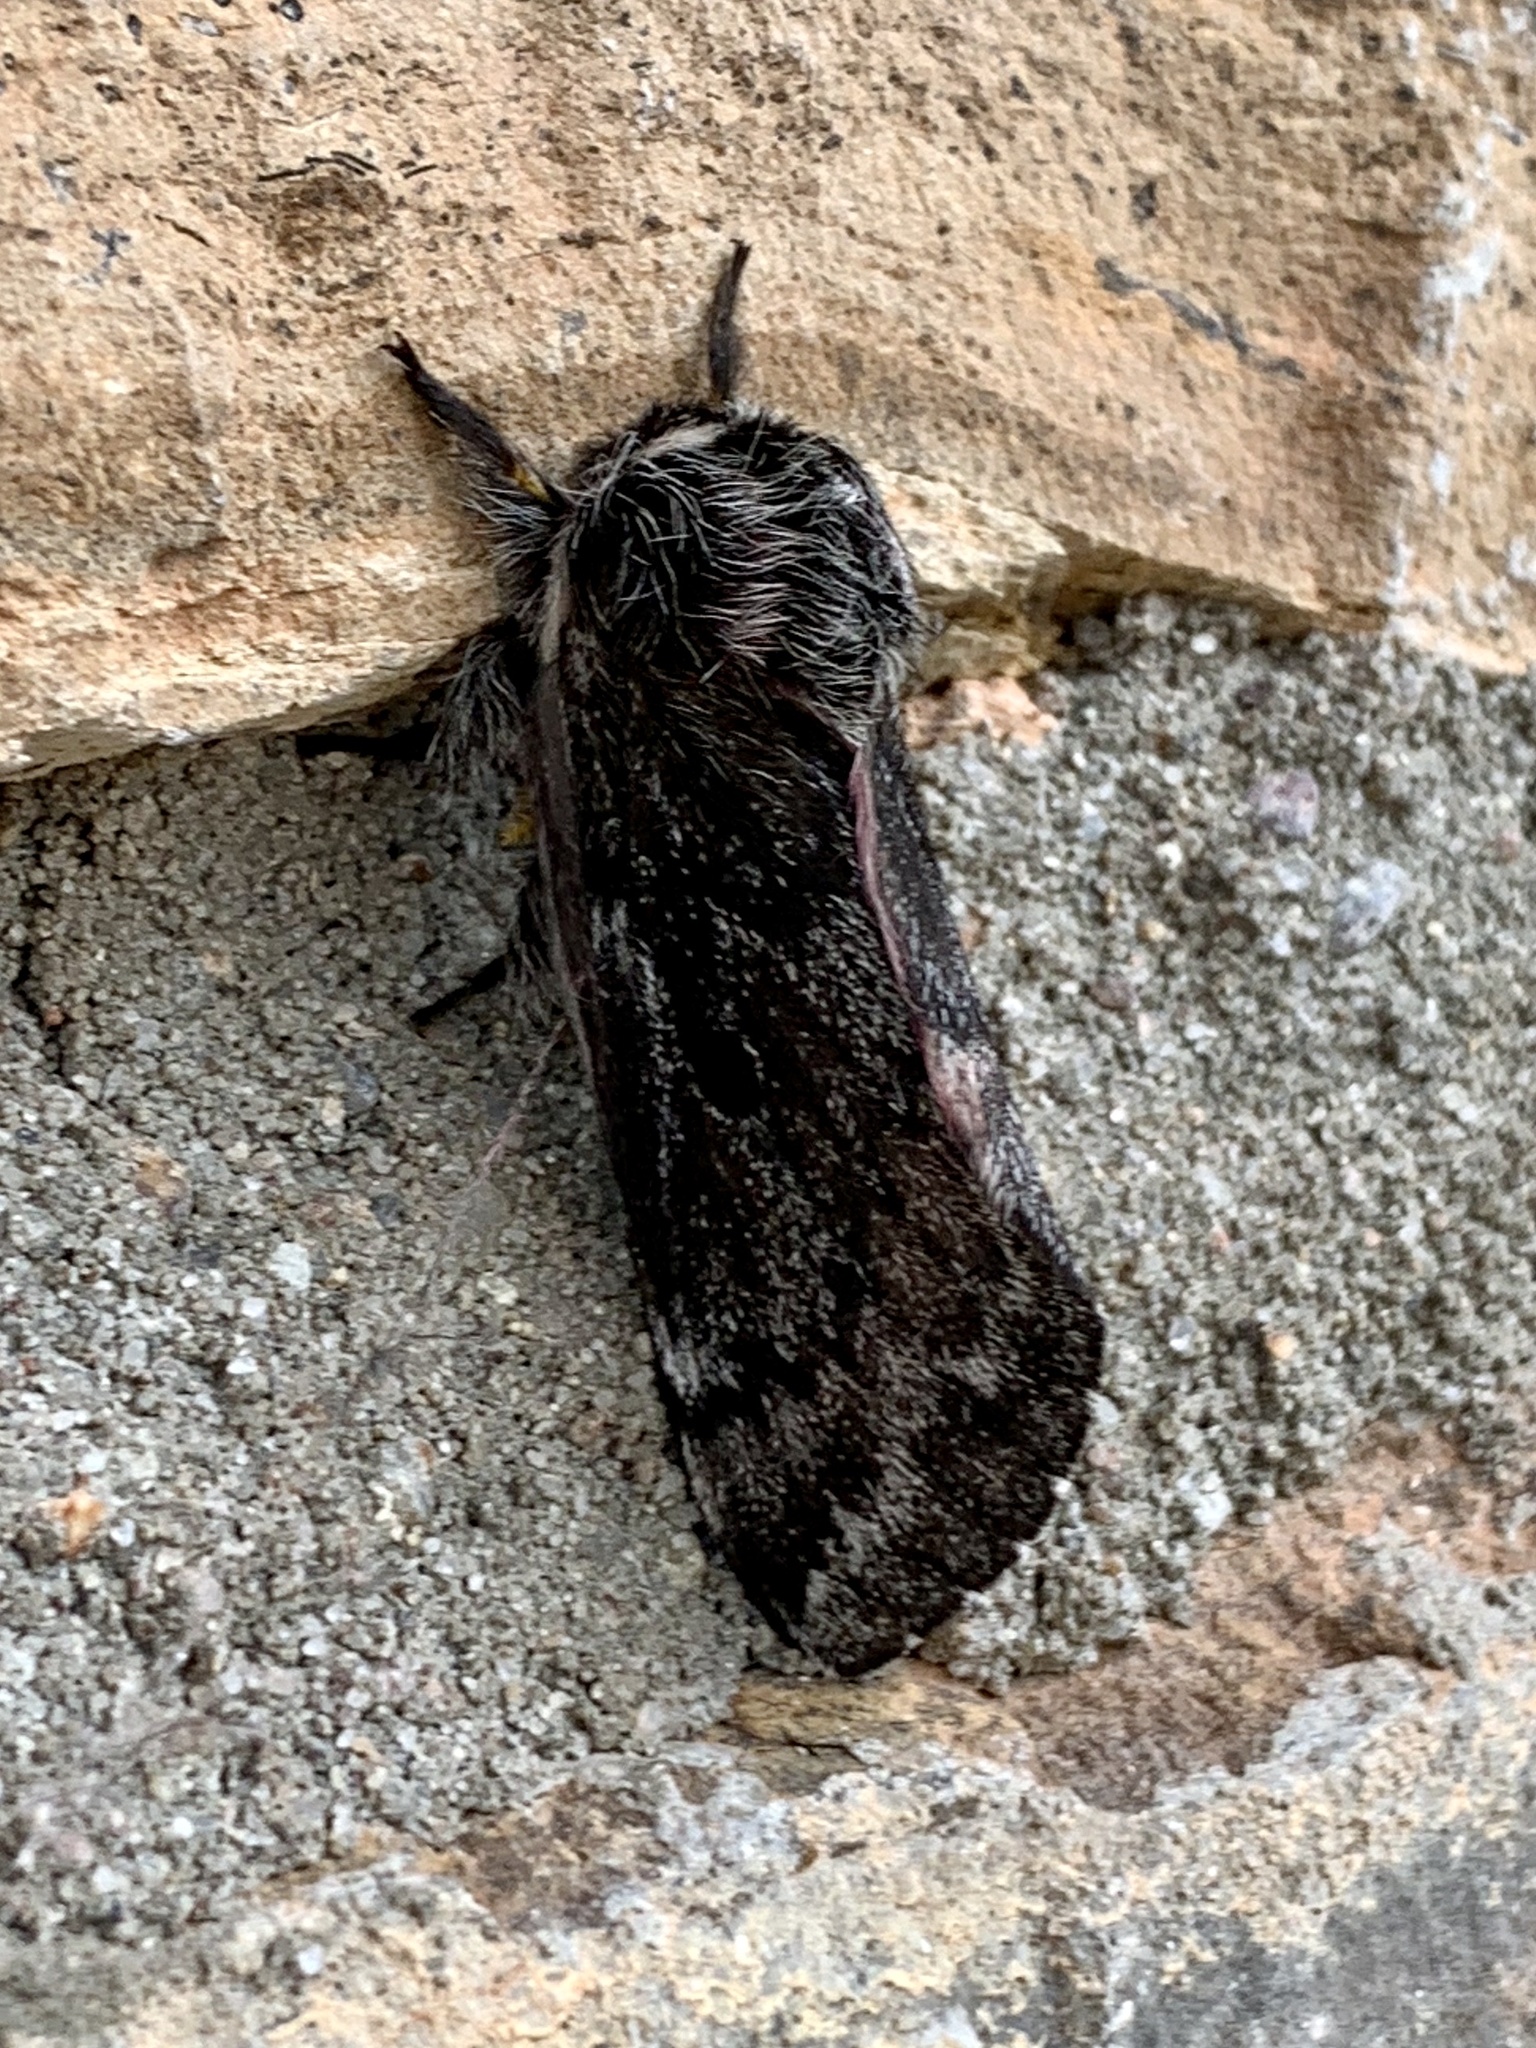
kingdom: Animalia
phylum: Arthropoda
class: Insecta
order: Lepidoptera
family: Saturniidae
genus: Coloradia
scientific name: Coloradia pandora
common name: Pandora pinemoth
